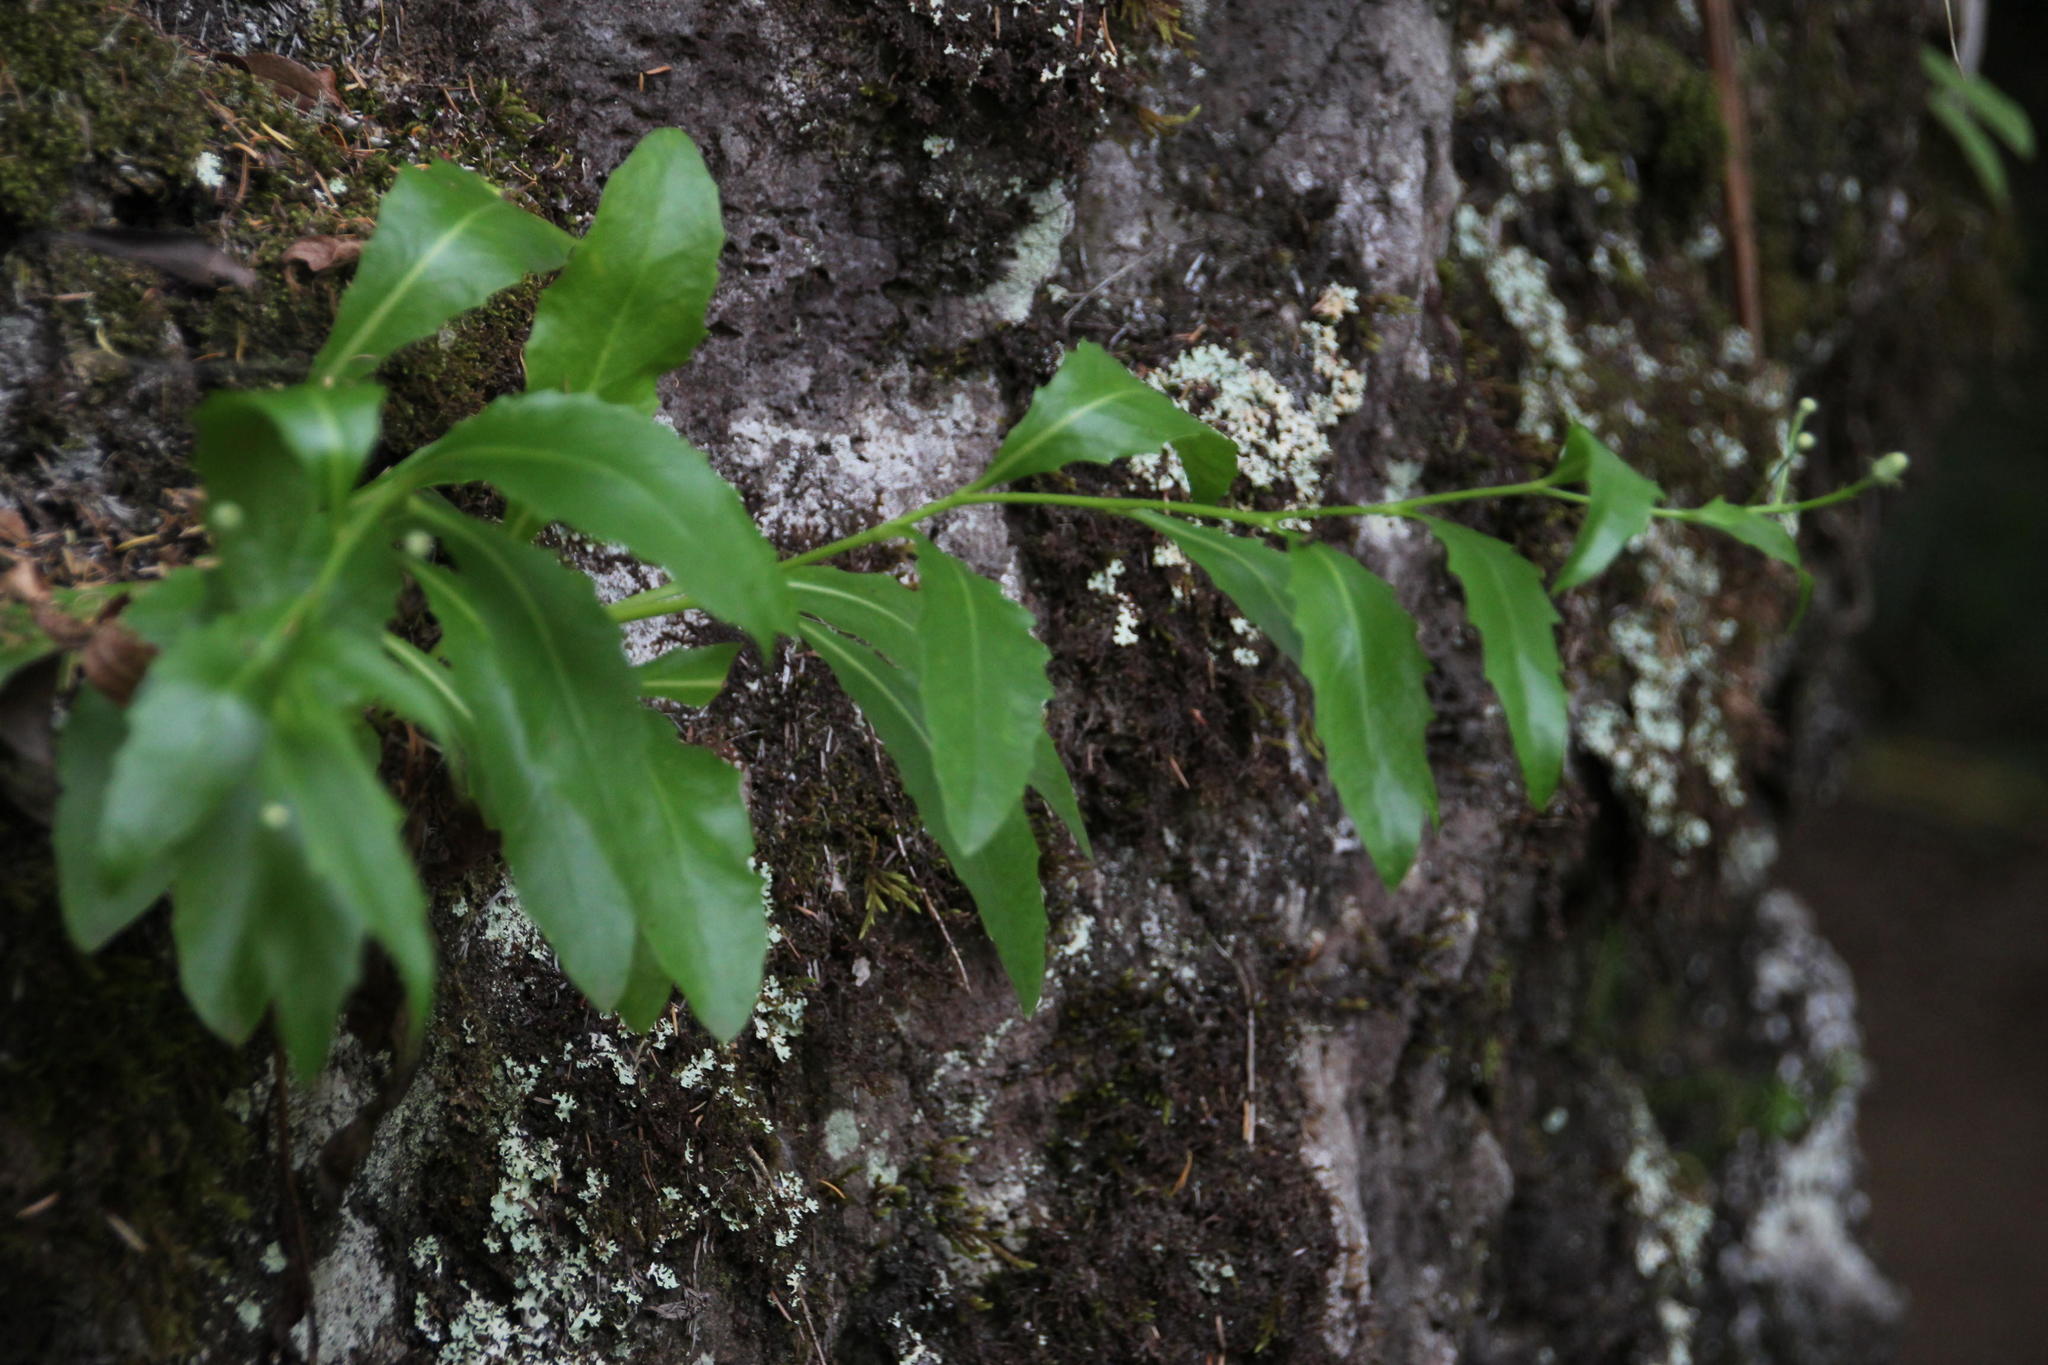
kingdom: Plantae
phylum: Tracheophyta
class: Magnoliopsida
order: Asterales
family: Asteraceae
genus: Tolpis
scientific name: Tolpis macrorhiza
